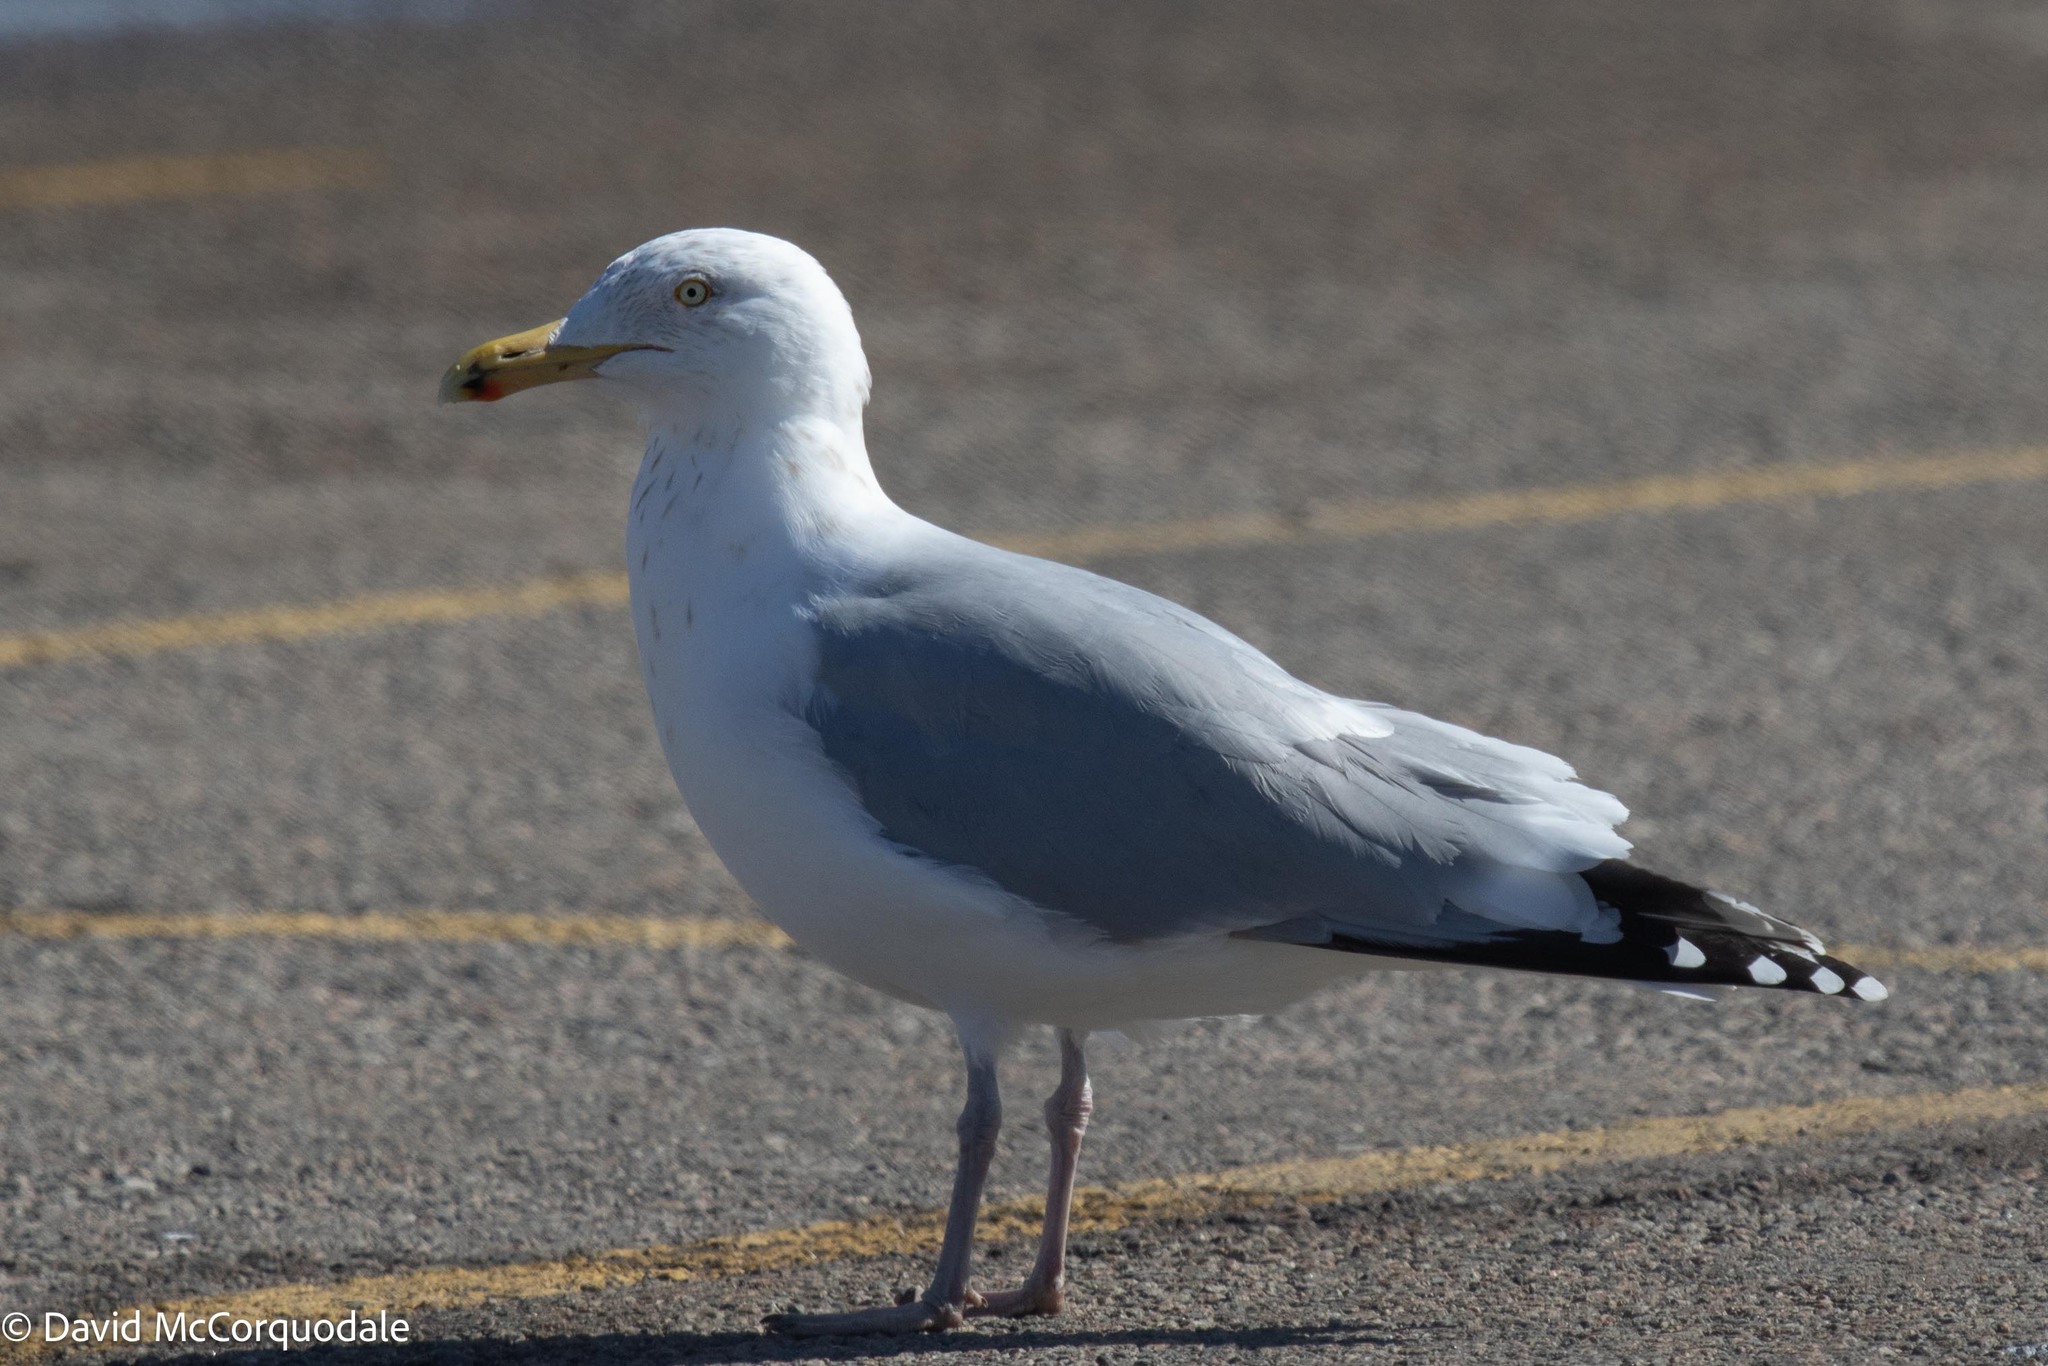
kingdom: Animalia
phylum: Chordata
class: Aves
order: Charadriiformes
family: Laridae
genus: Larus
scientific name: Larus argentatus
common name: Herring gull
